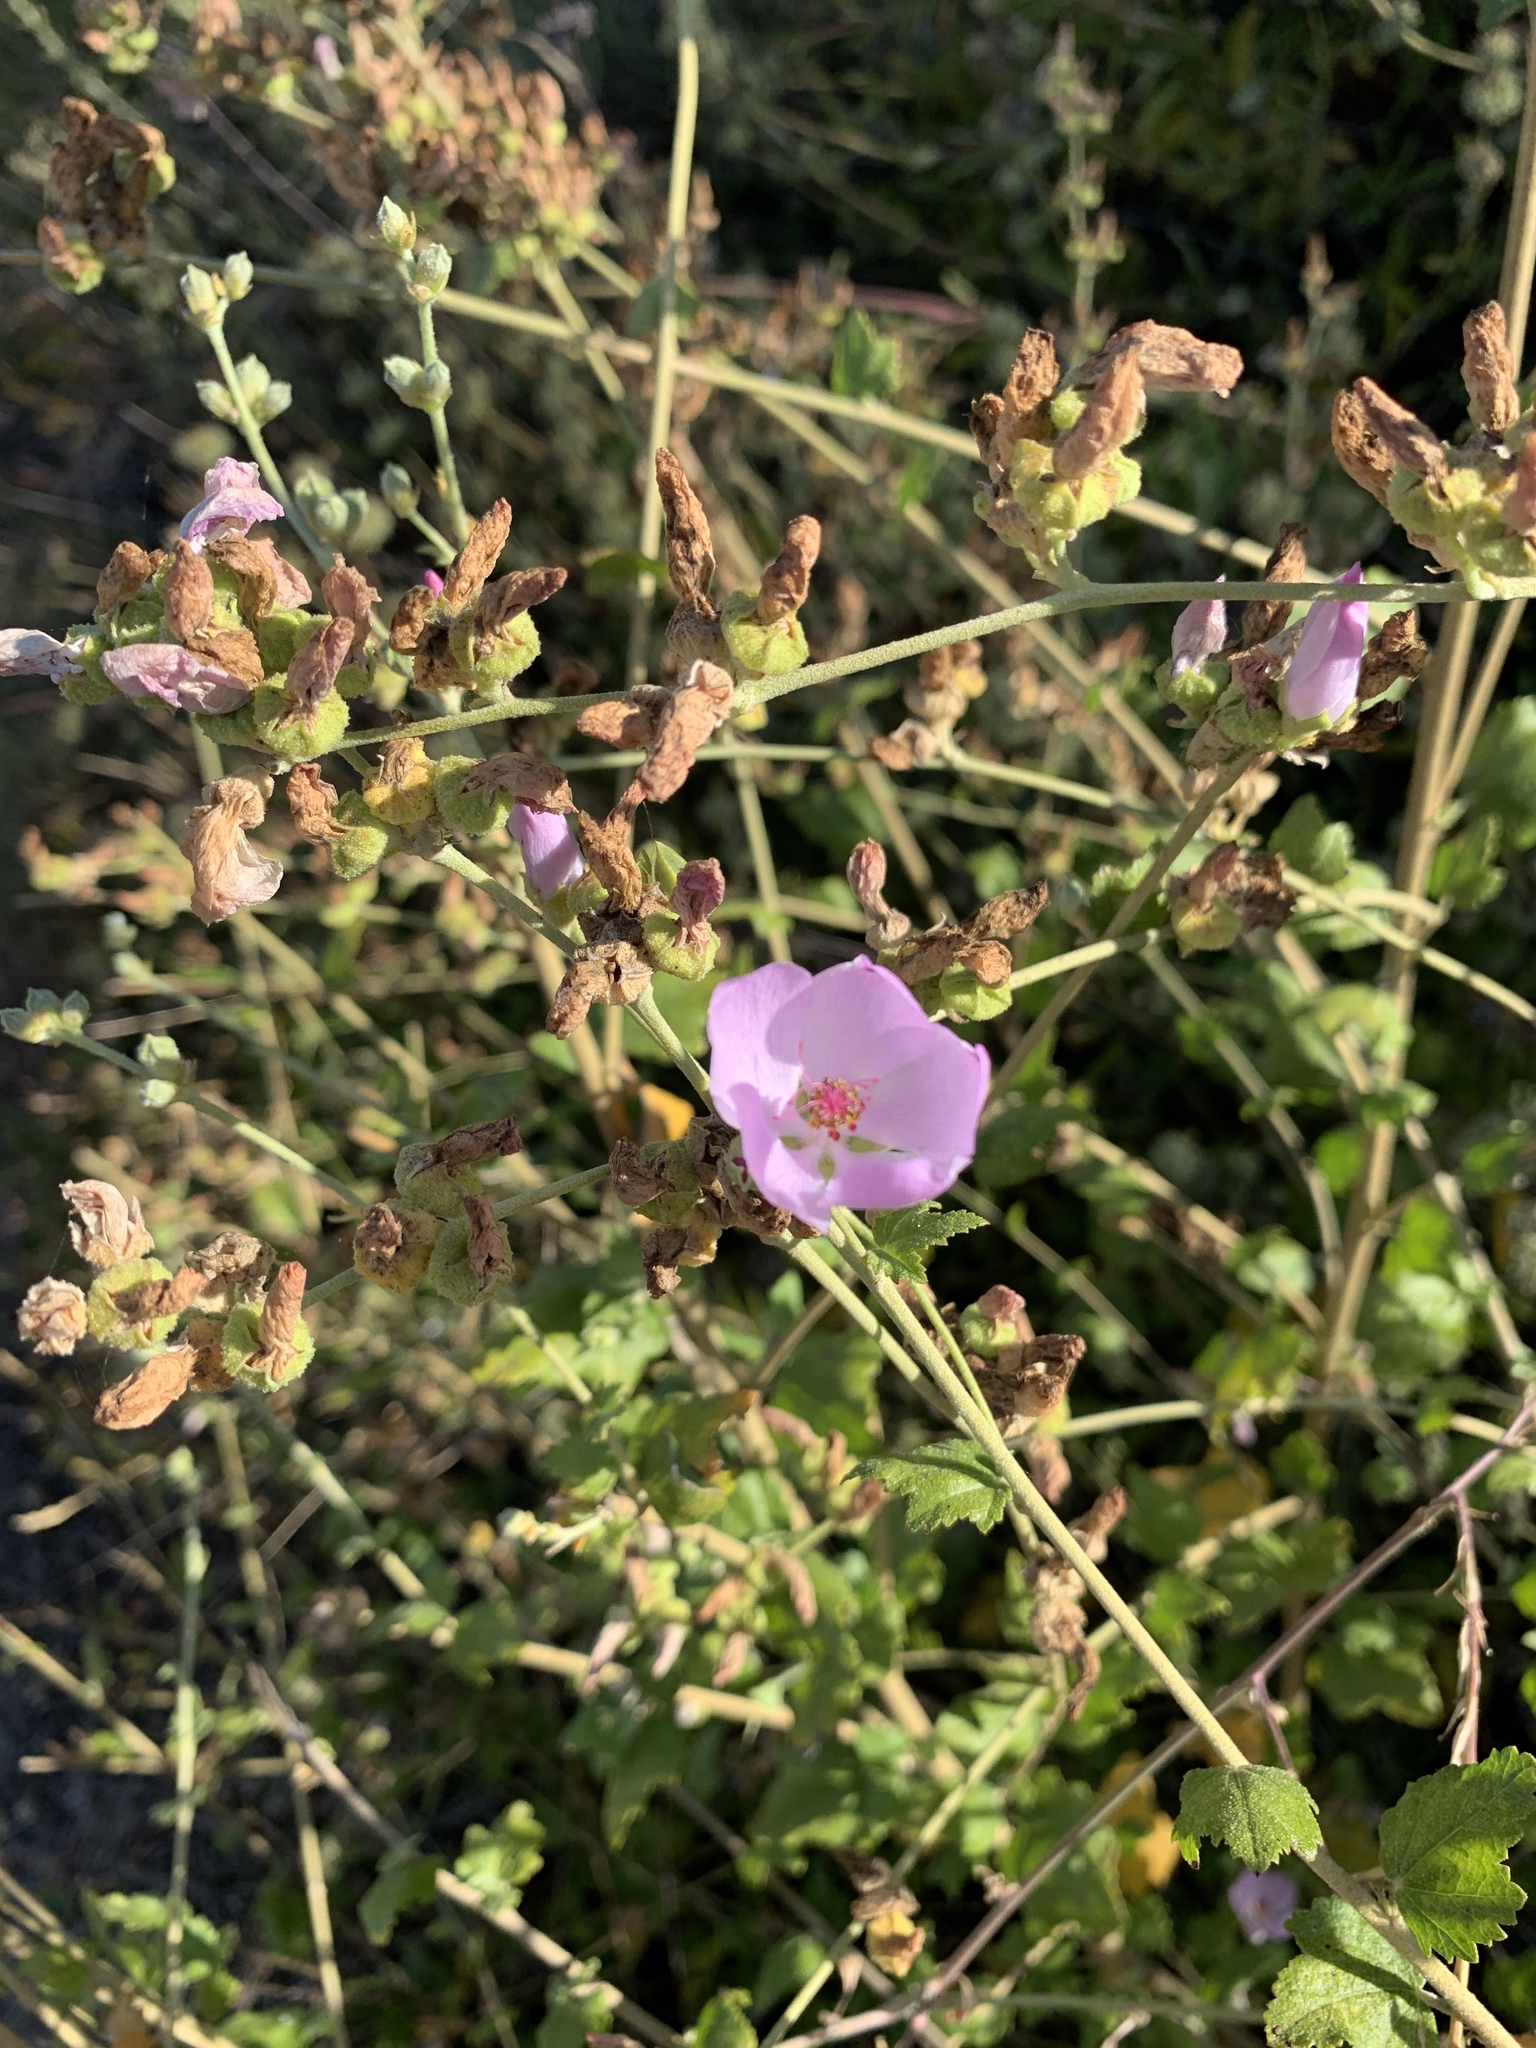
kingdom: Plantae
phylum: Tracheophyta
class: Magnoliopsida
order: Malvales
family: Malvaceae
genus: Malacothamnus
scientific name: Malacothamnus fasciculatus
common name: Sant cruz island bush-mallow
